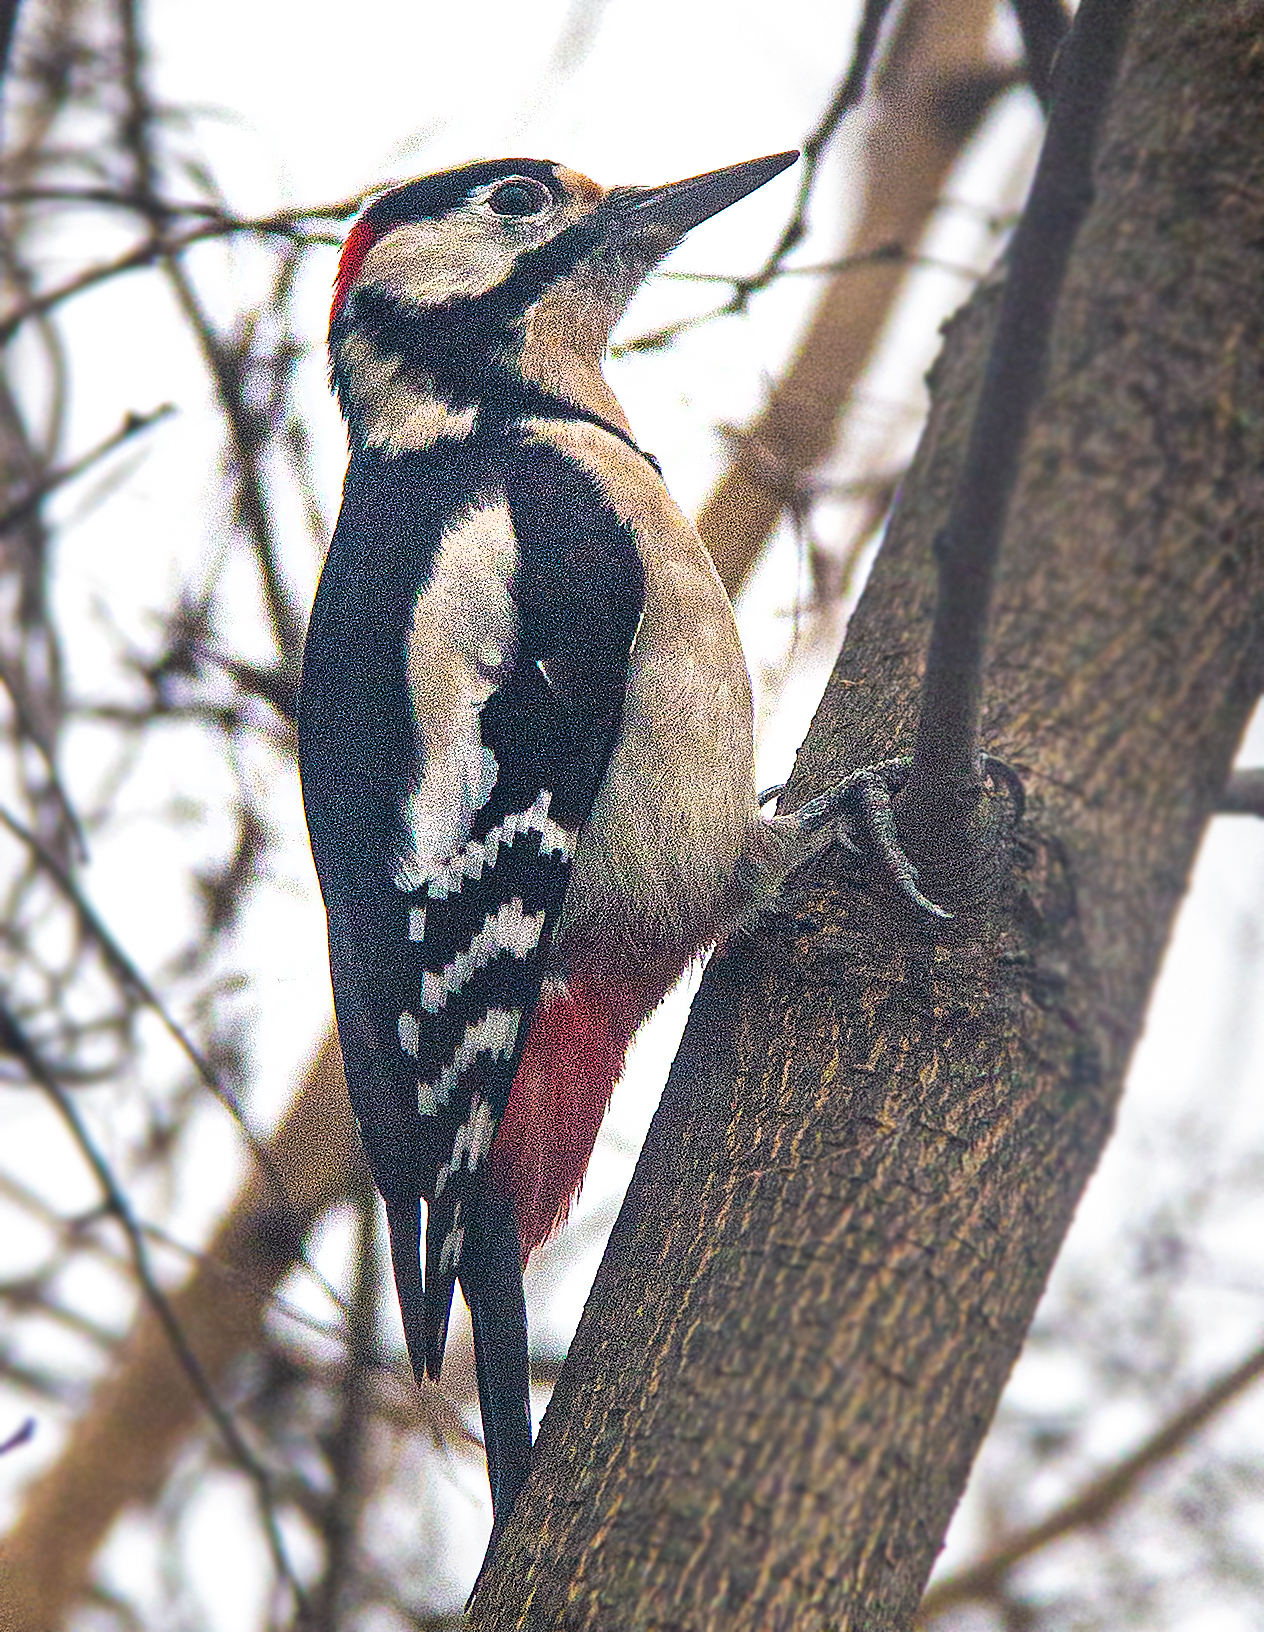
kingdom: Animalia
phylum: Chordata
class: Aves
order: Piciformes
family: Picidae
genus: Dendrocopos
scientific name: Dendrocopos major
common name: Great spotted woodpecker
